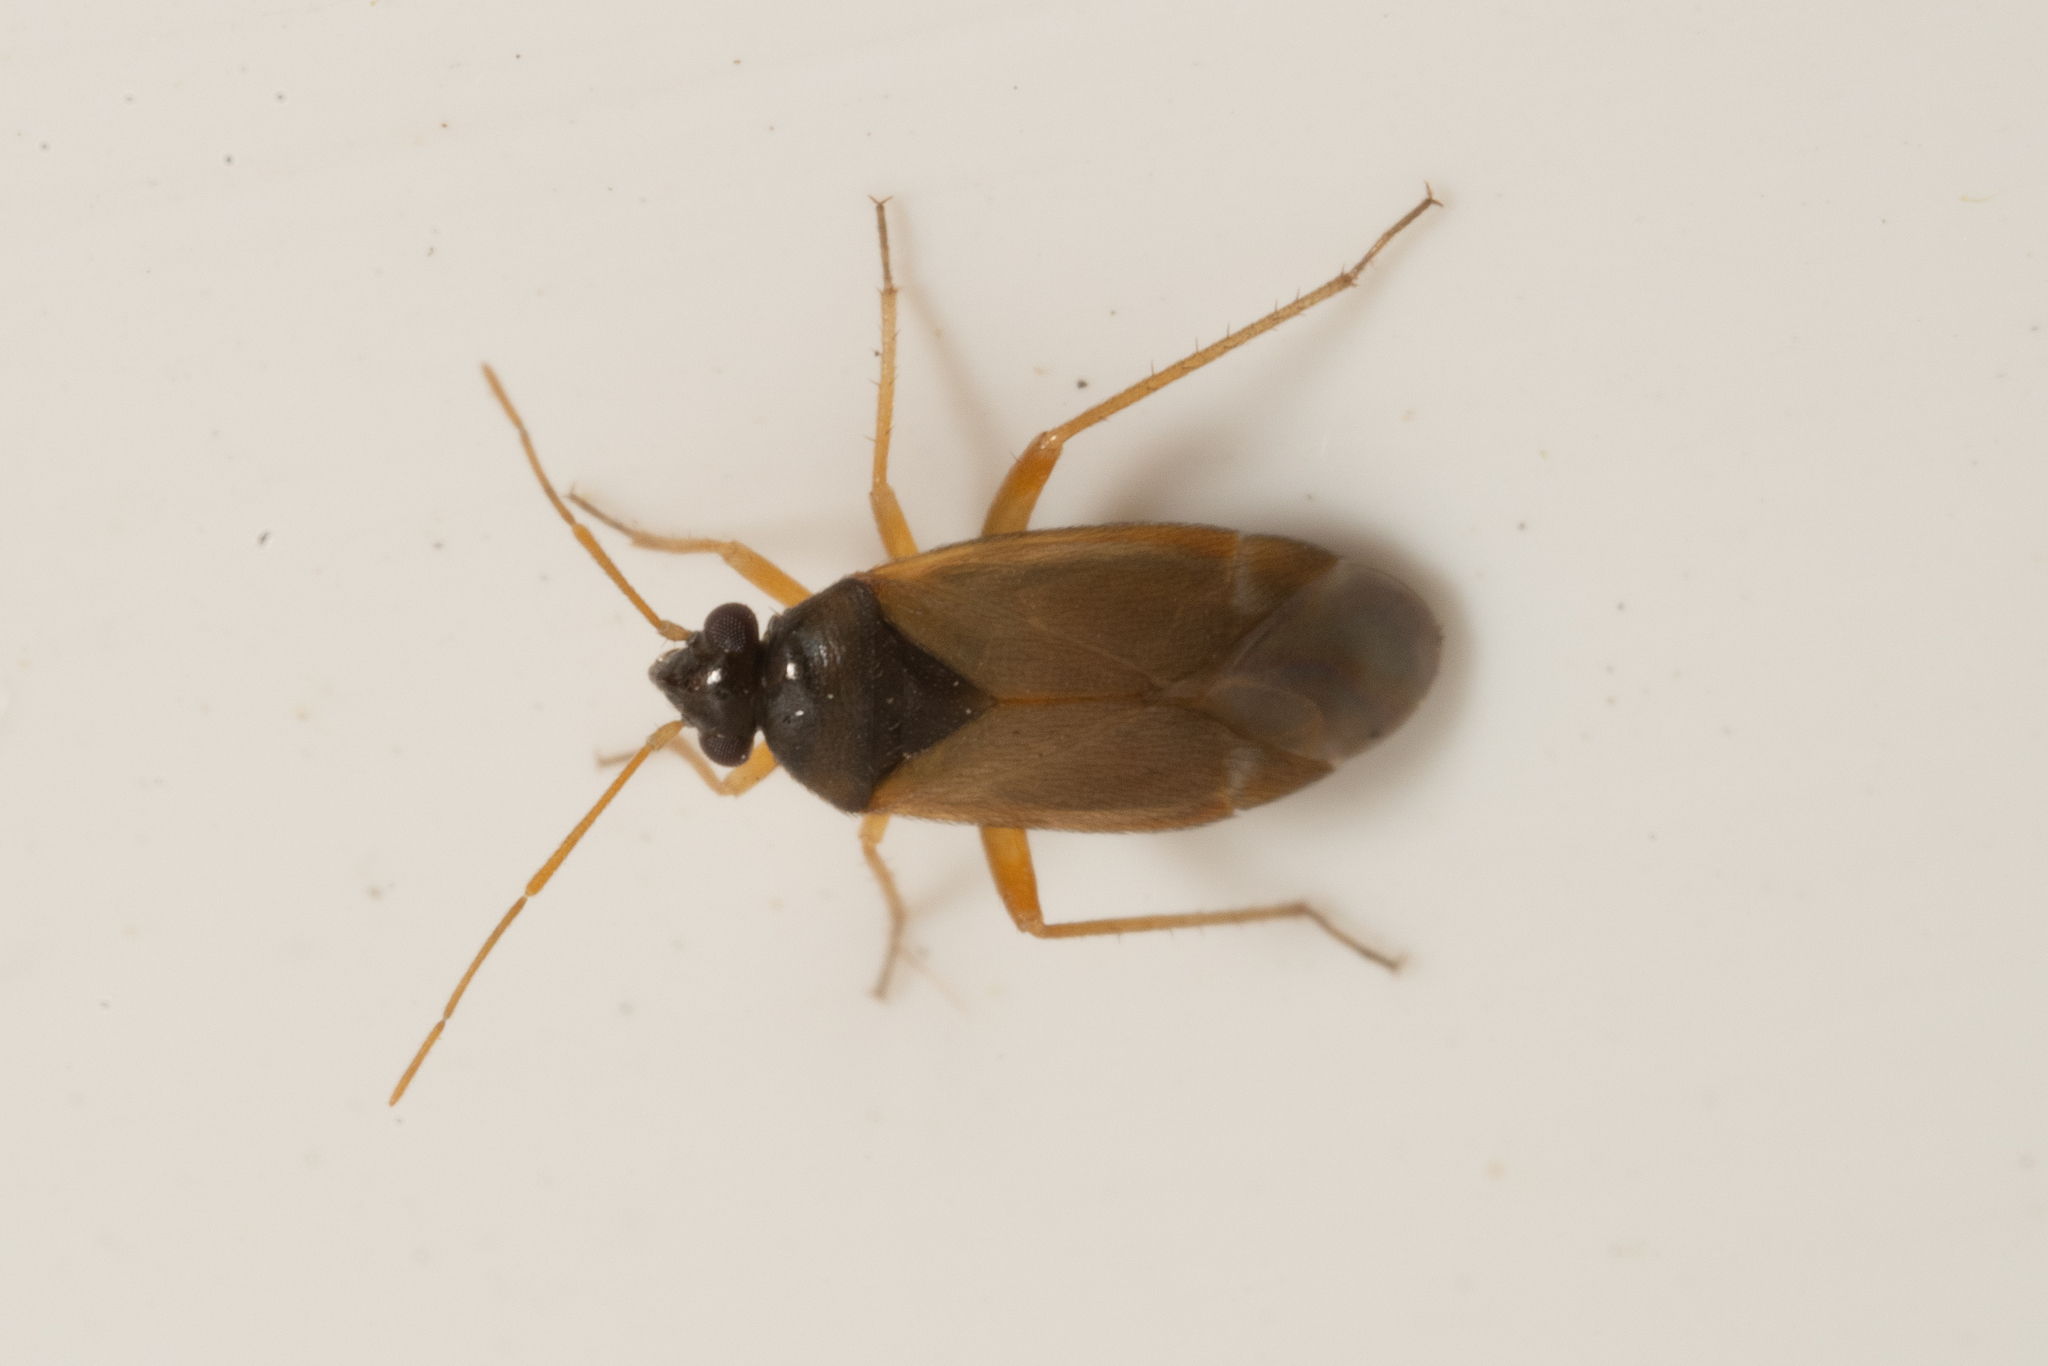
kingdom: Animalia
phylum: Arthropoda
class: Insecta
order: Hemiptera
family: Miridae
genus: Plesiodema
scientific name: Plesiodema pinetella
